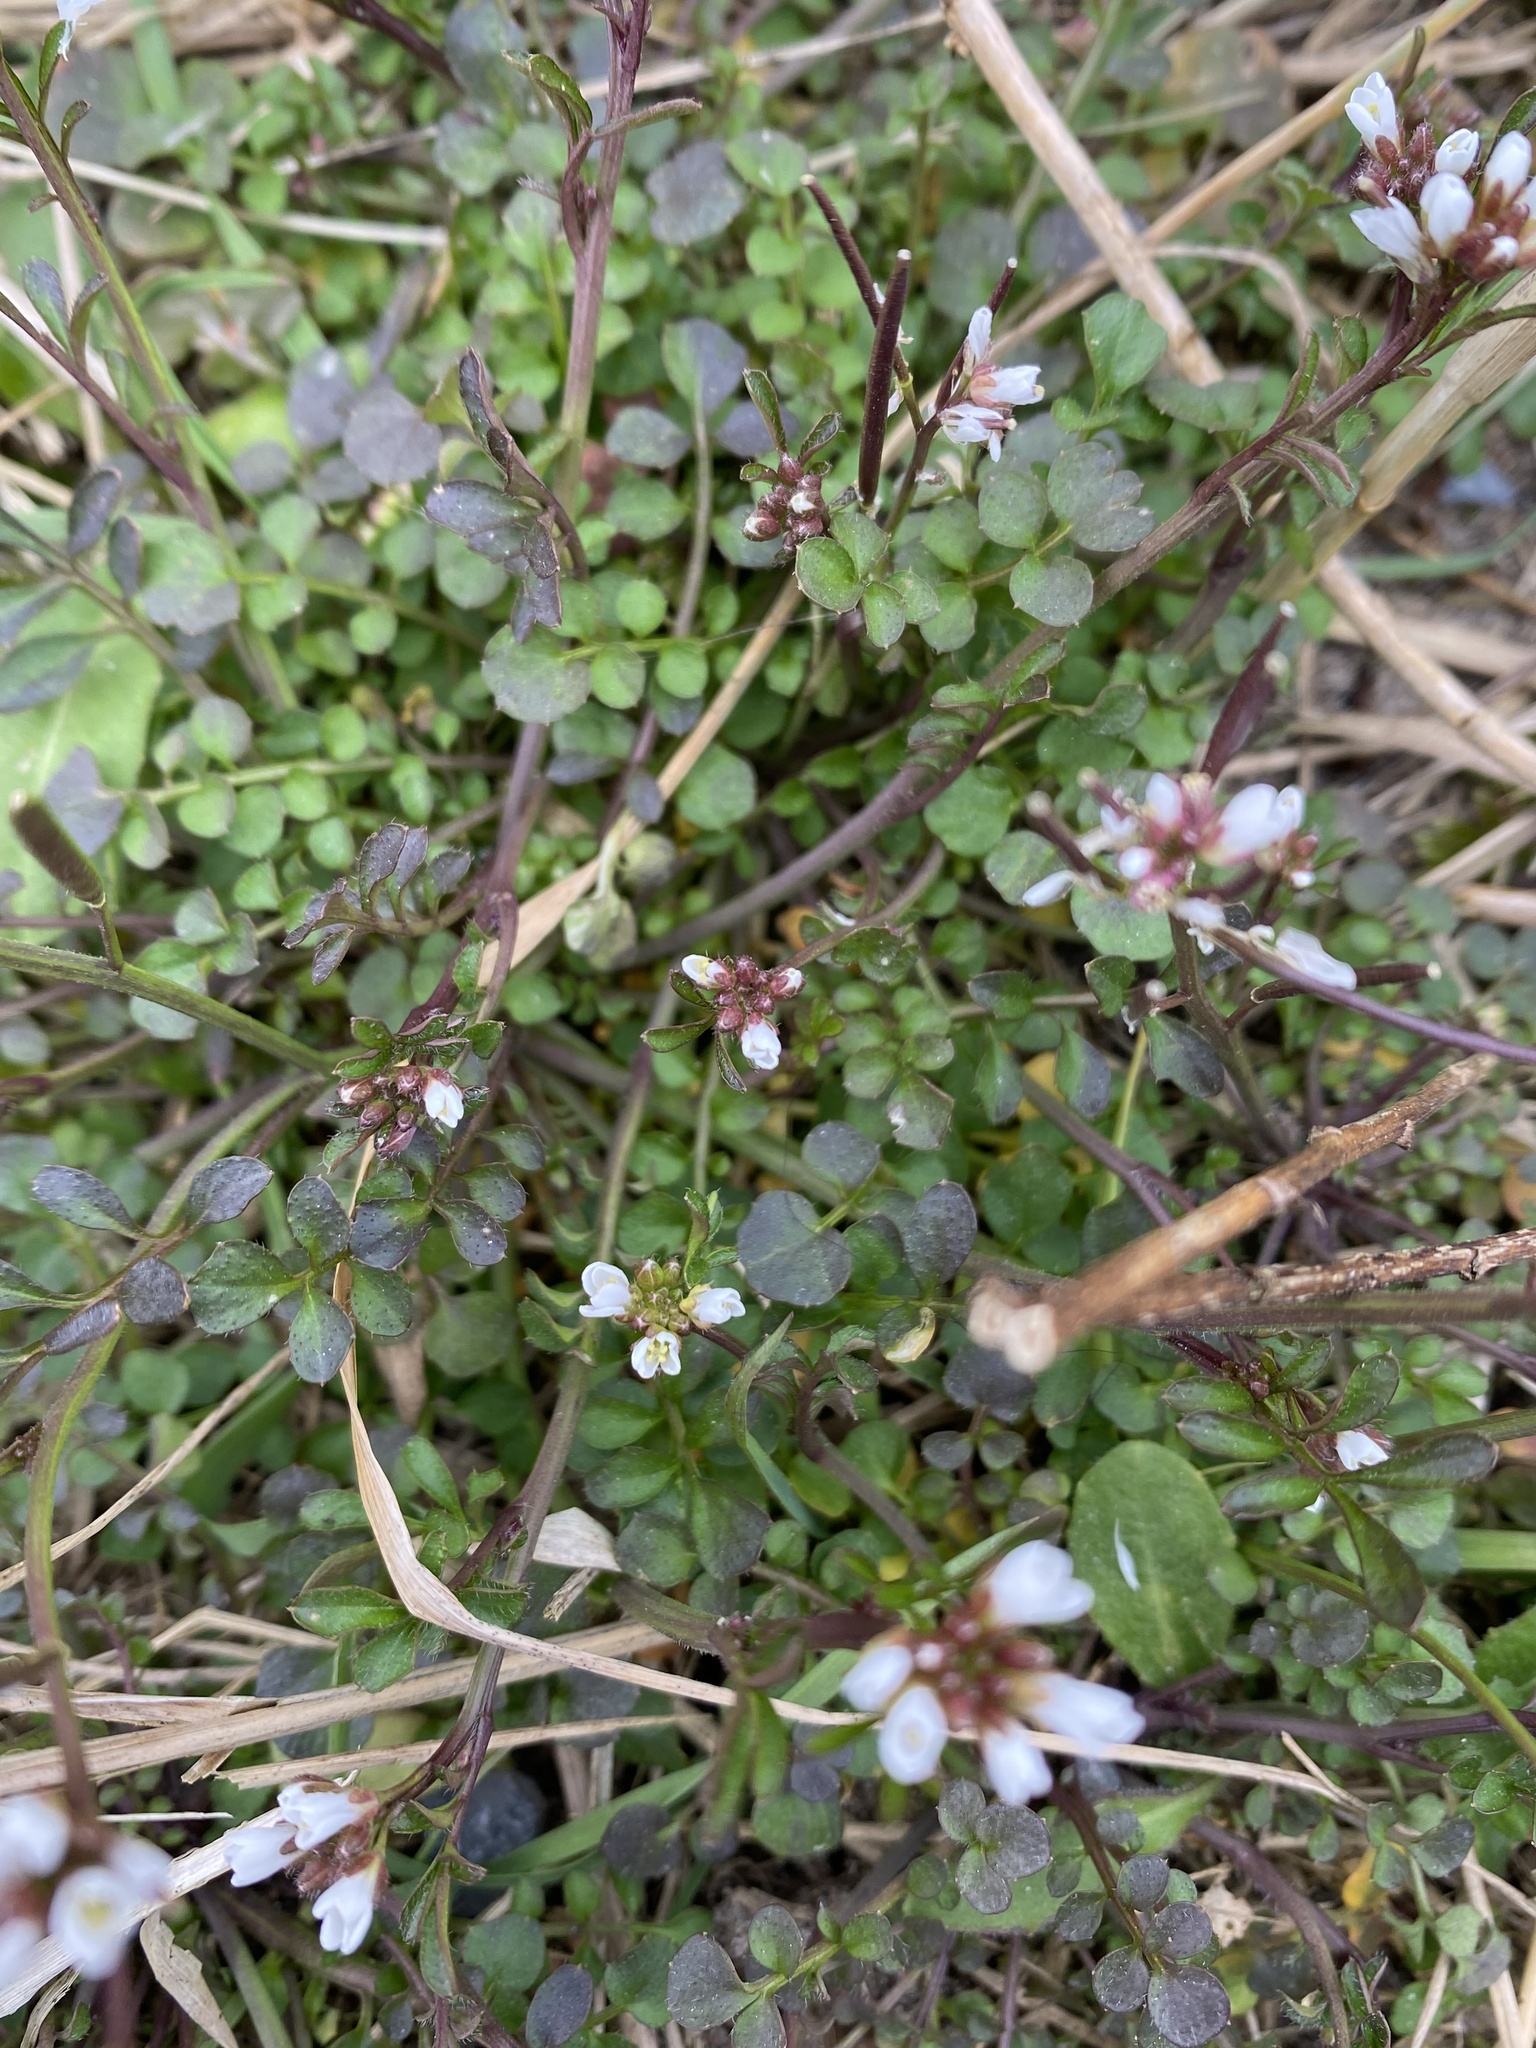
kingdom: Plantae
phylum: Tracheophyta
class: Magnoliopsida
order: Brassicales
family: Brassicaceae
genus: Cardamine
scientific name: Cardamine hirsuta
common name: Hairy bittercress
